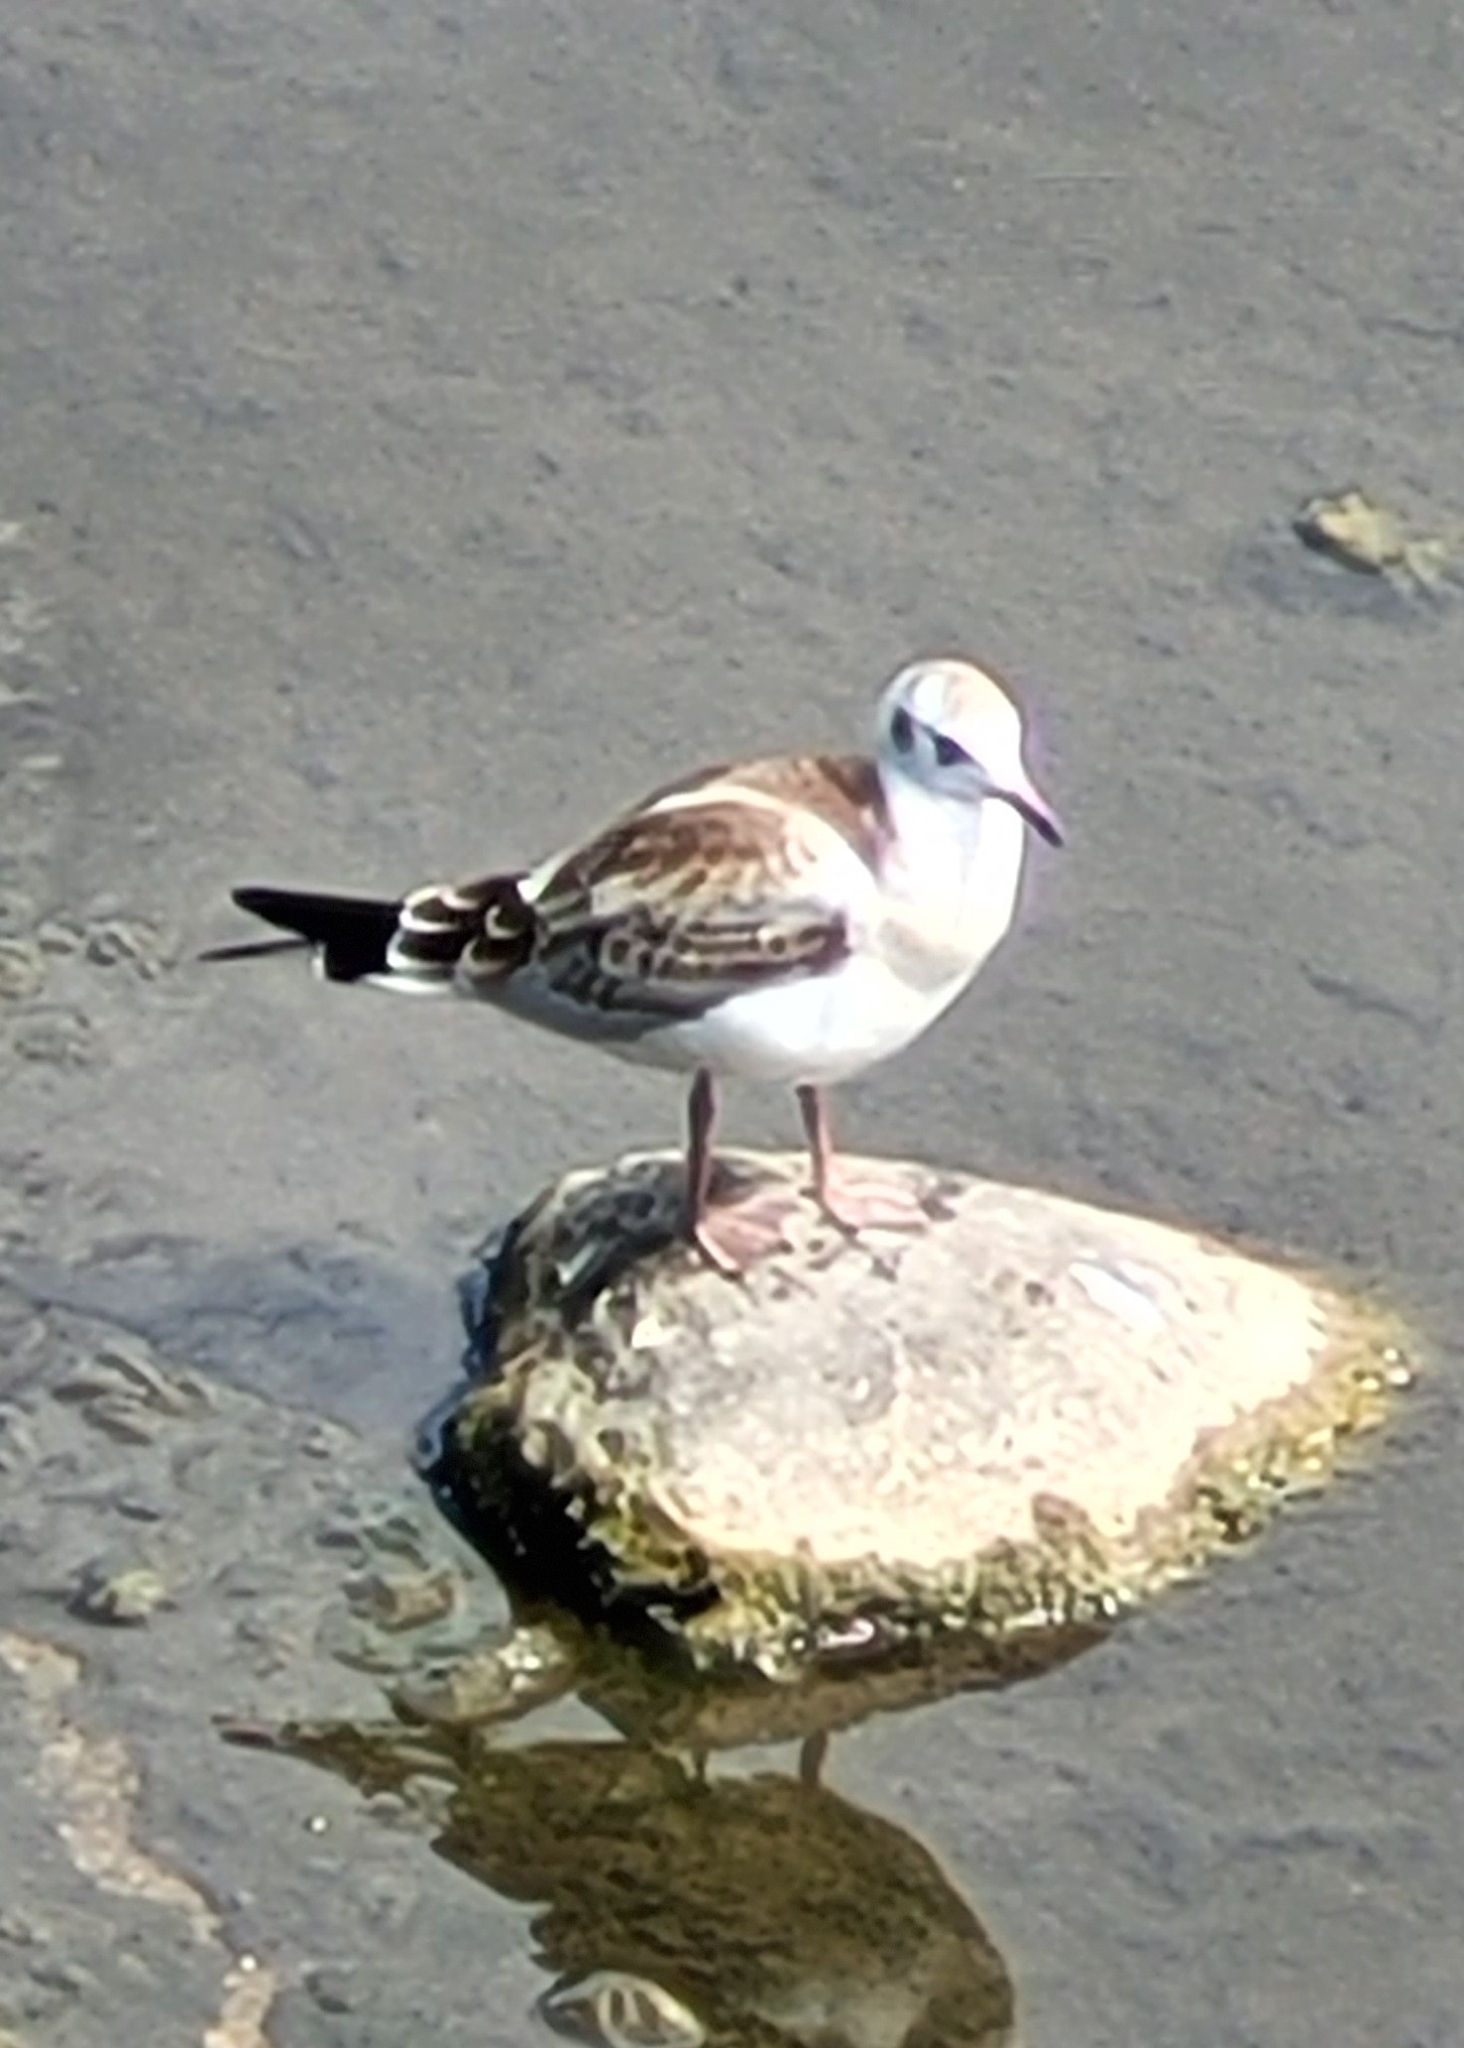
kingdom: Animalia
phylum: Chordata
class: Aves
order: Charadriiformes
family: Laridae
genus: Chroicocephalus
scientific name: Chroicocephalus ridibundus
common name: Black-headed gull
